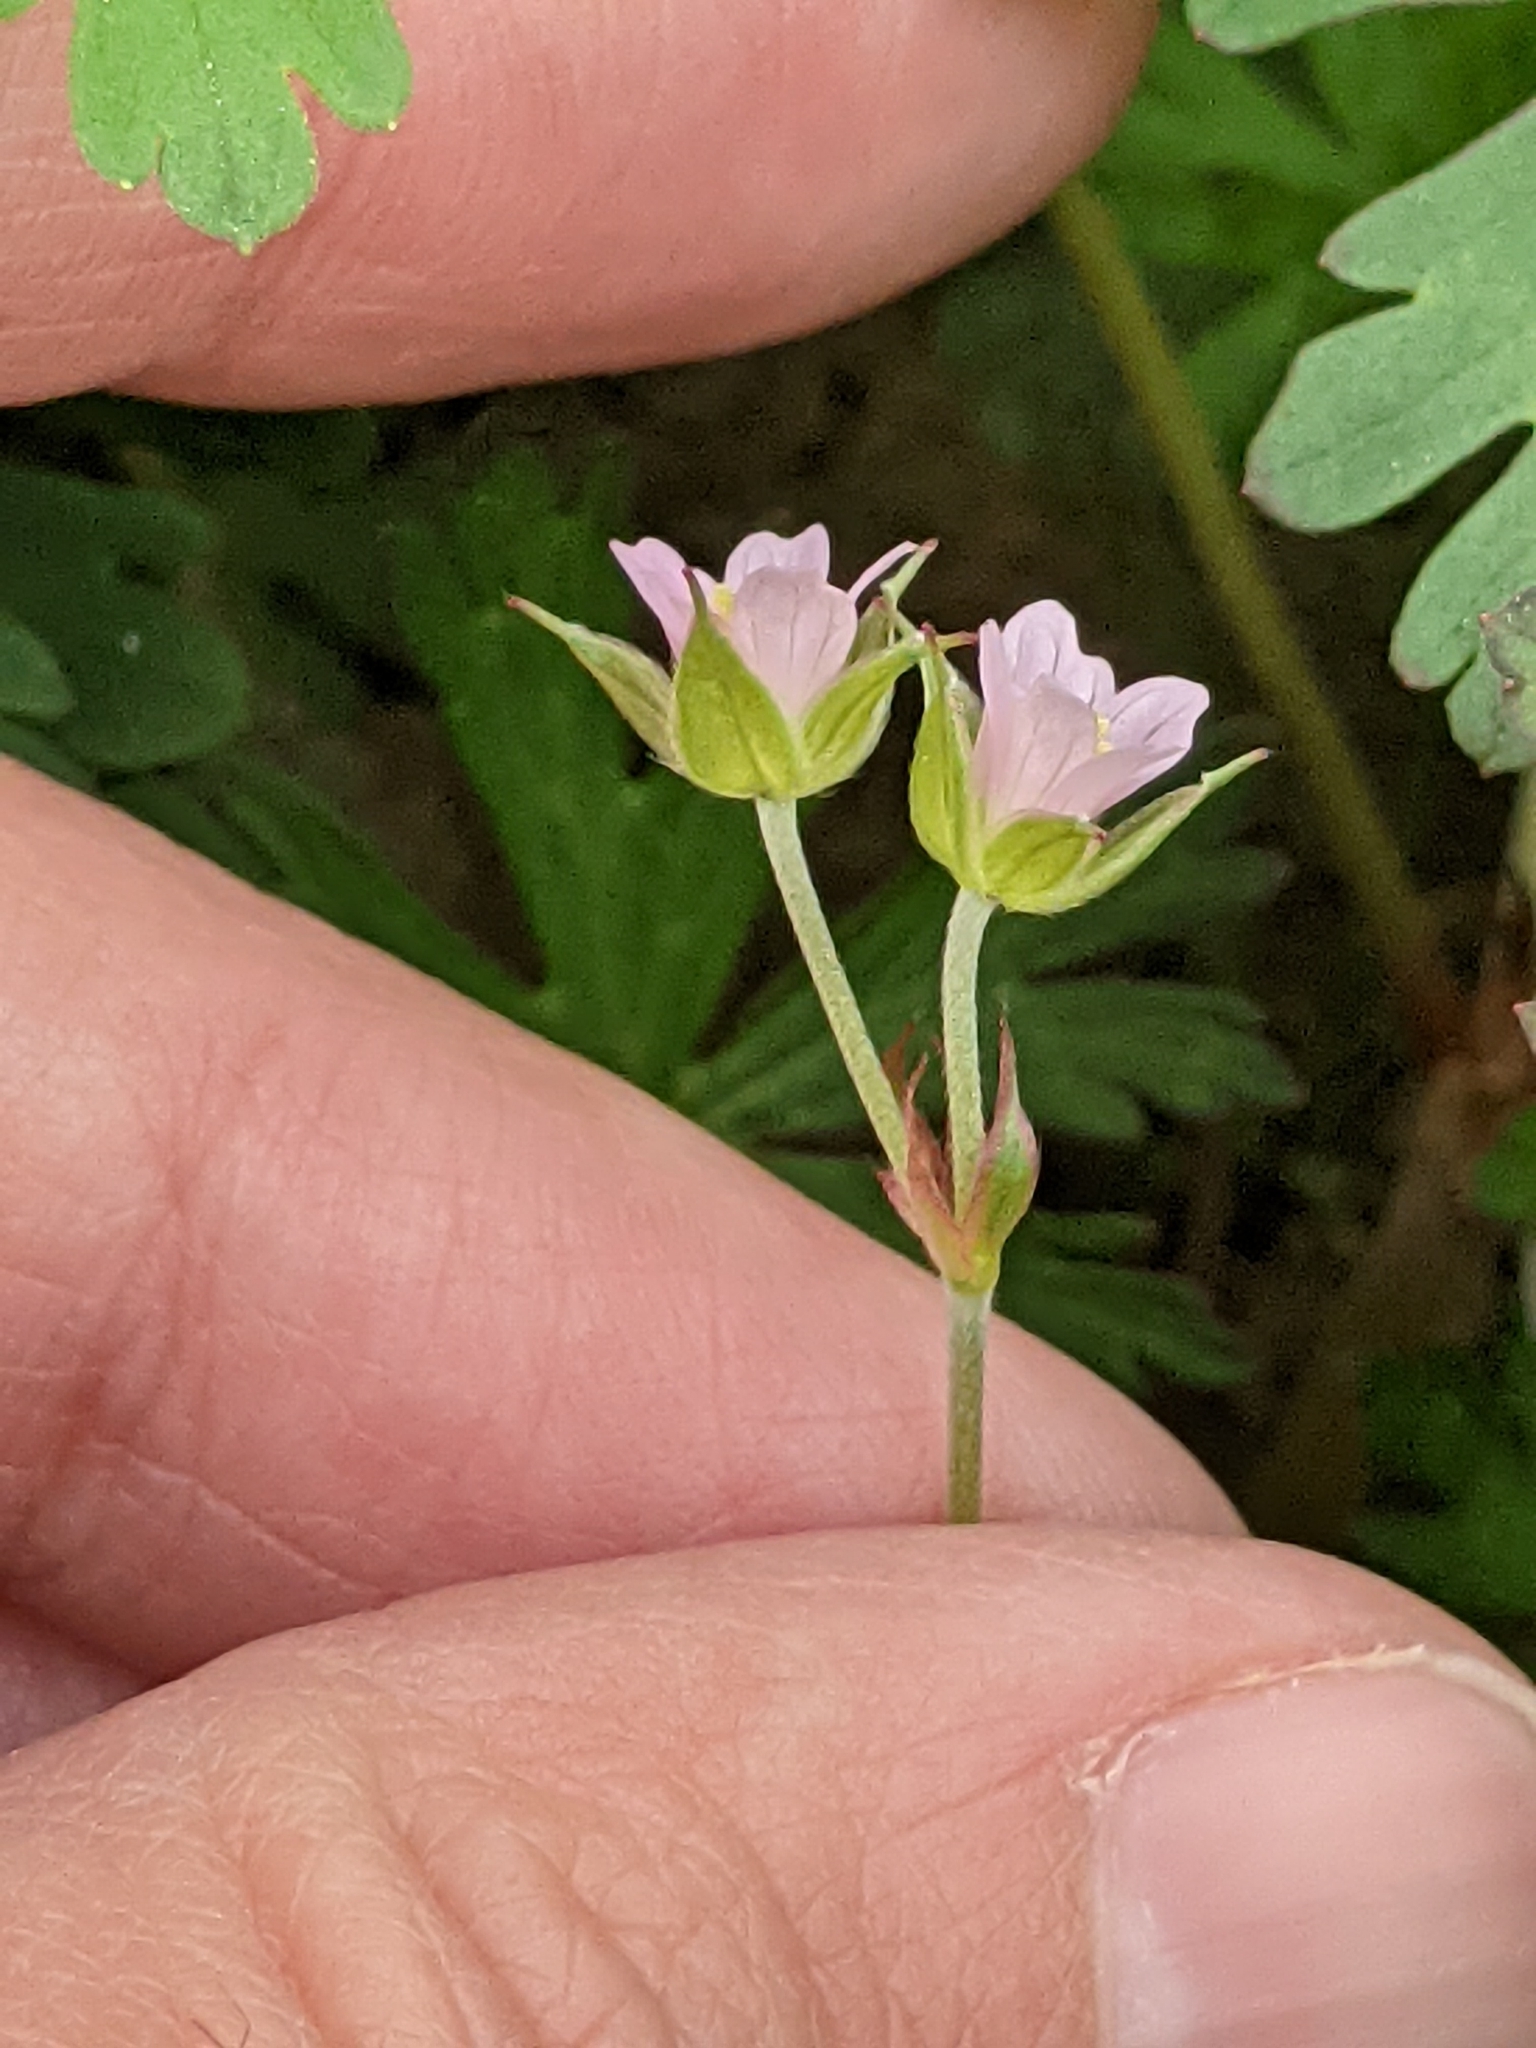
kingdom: Plantae
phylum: Tracheophyta
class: Magnoliopsida
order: Geraniales
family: Geraniaceae
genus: Geranium
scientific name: Geranium carolinianum
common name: Carolina crane's-bill
